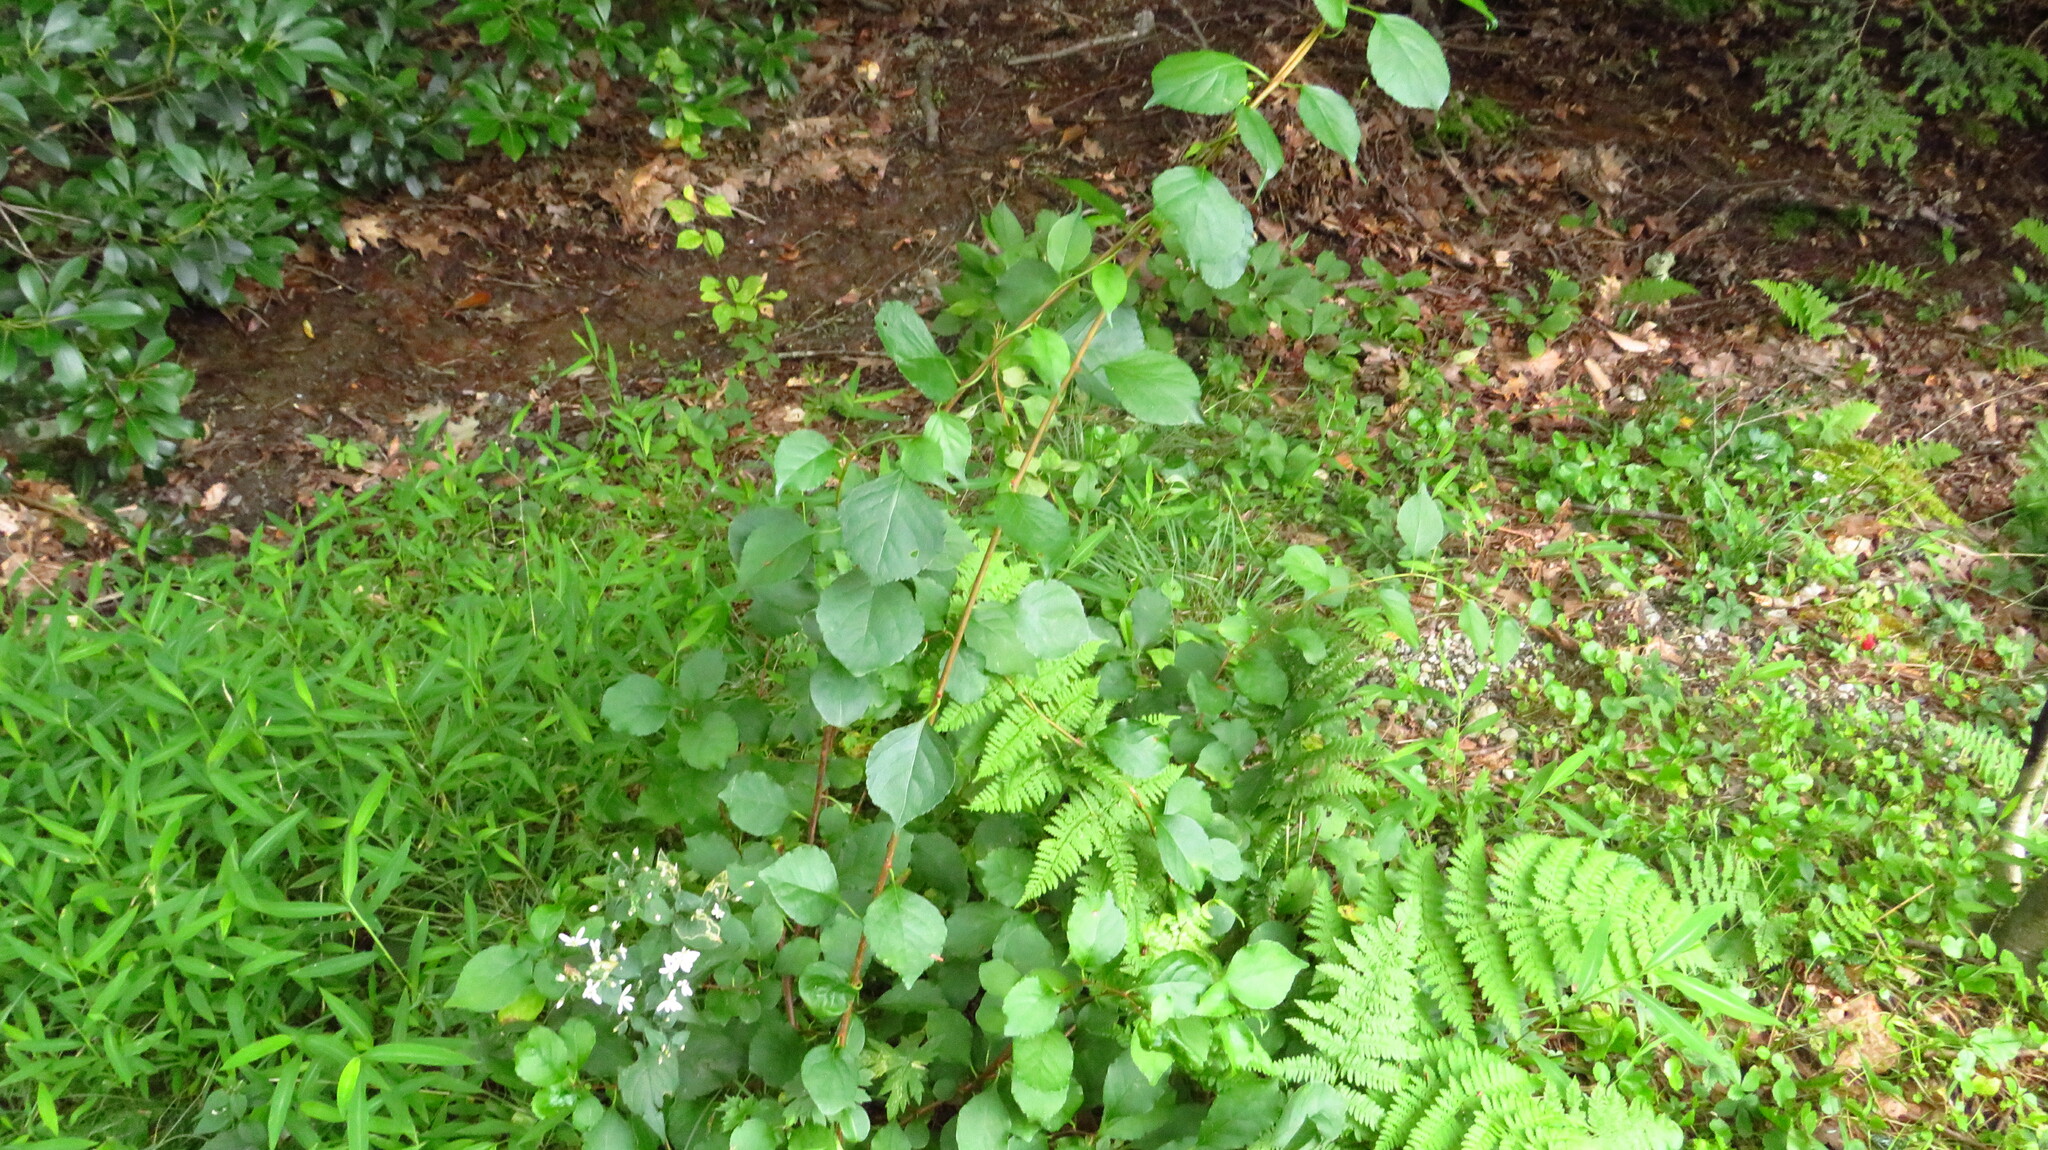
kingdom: Plantae
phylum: Tracheophyta
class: Magnoliopsida
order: Celastrales
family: Celastraceae
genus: Celastrus
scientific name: Celastrus orbiculatus
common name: Oriental bittersweet
